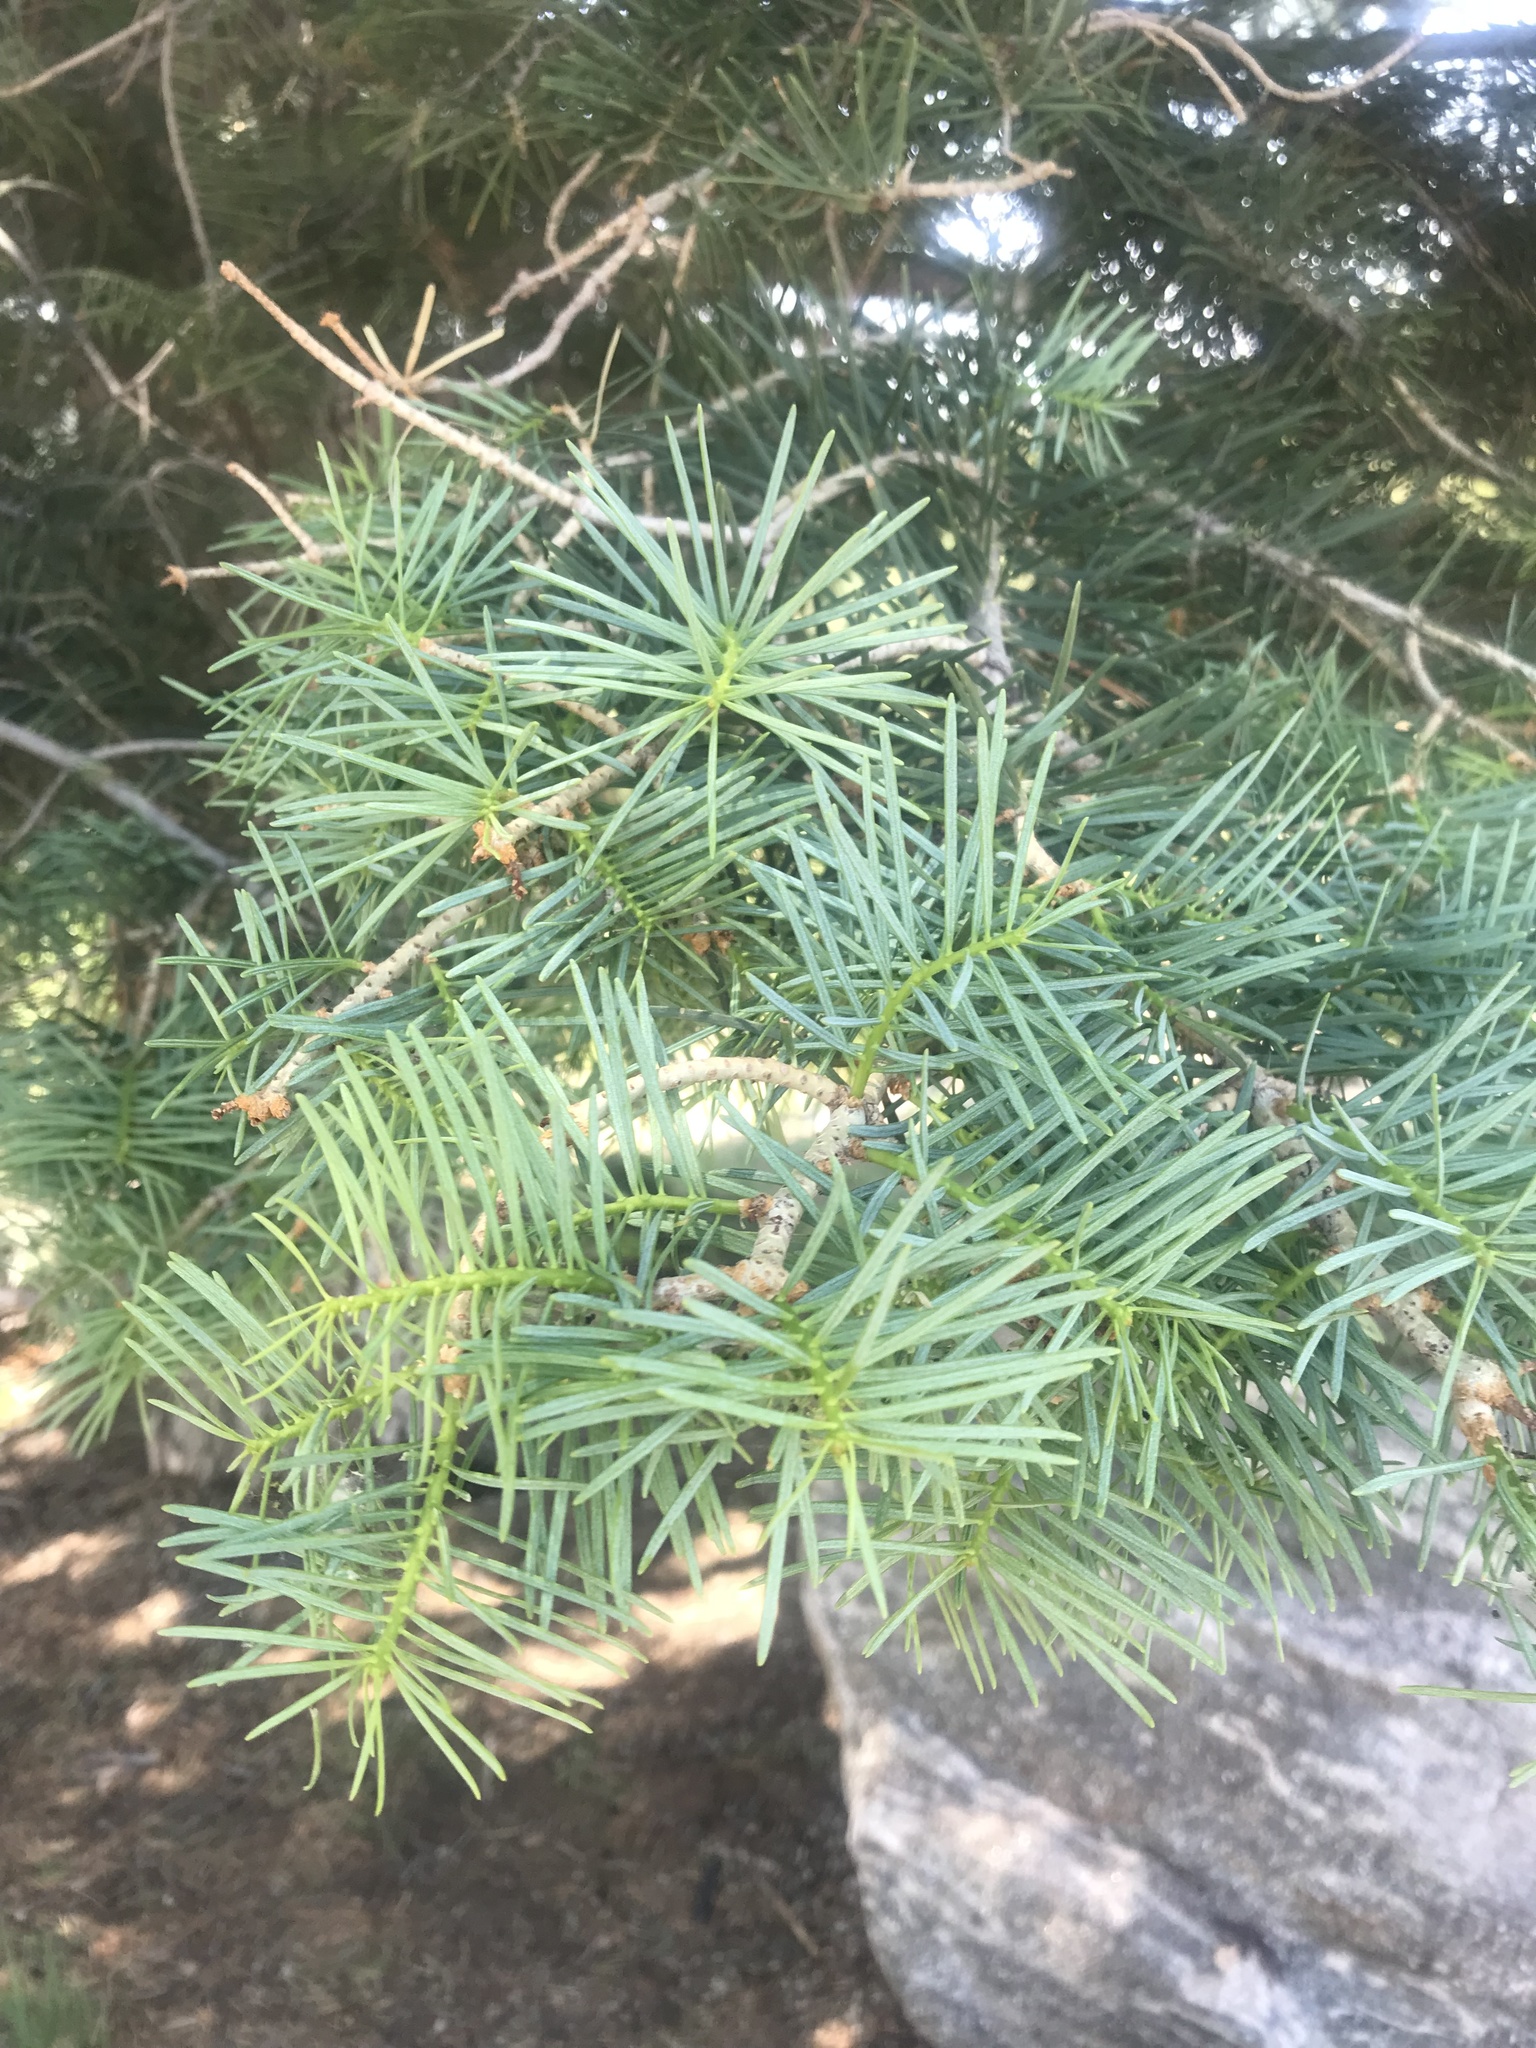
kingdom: Plantae
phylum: Tracheophyta
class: Pinopsida
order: Pinales
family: Pinaceae
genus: Abies
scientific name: Abies concolor
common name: Colorado fir
